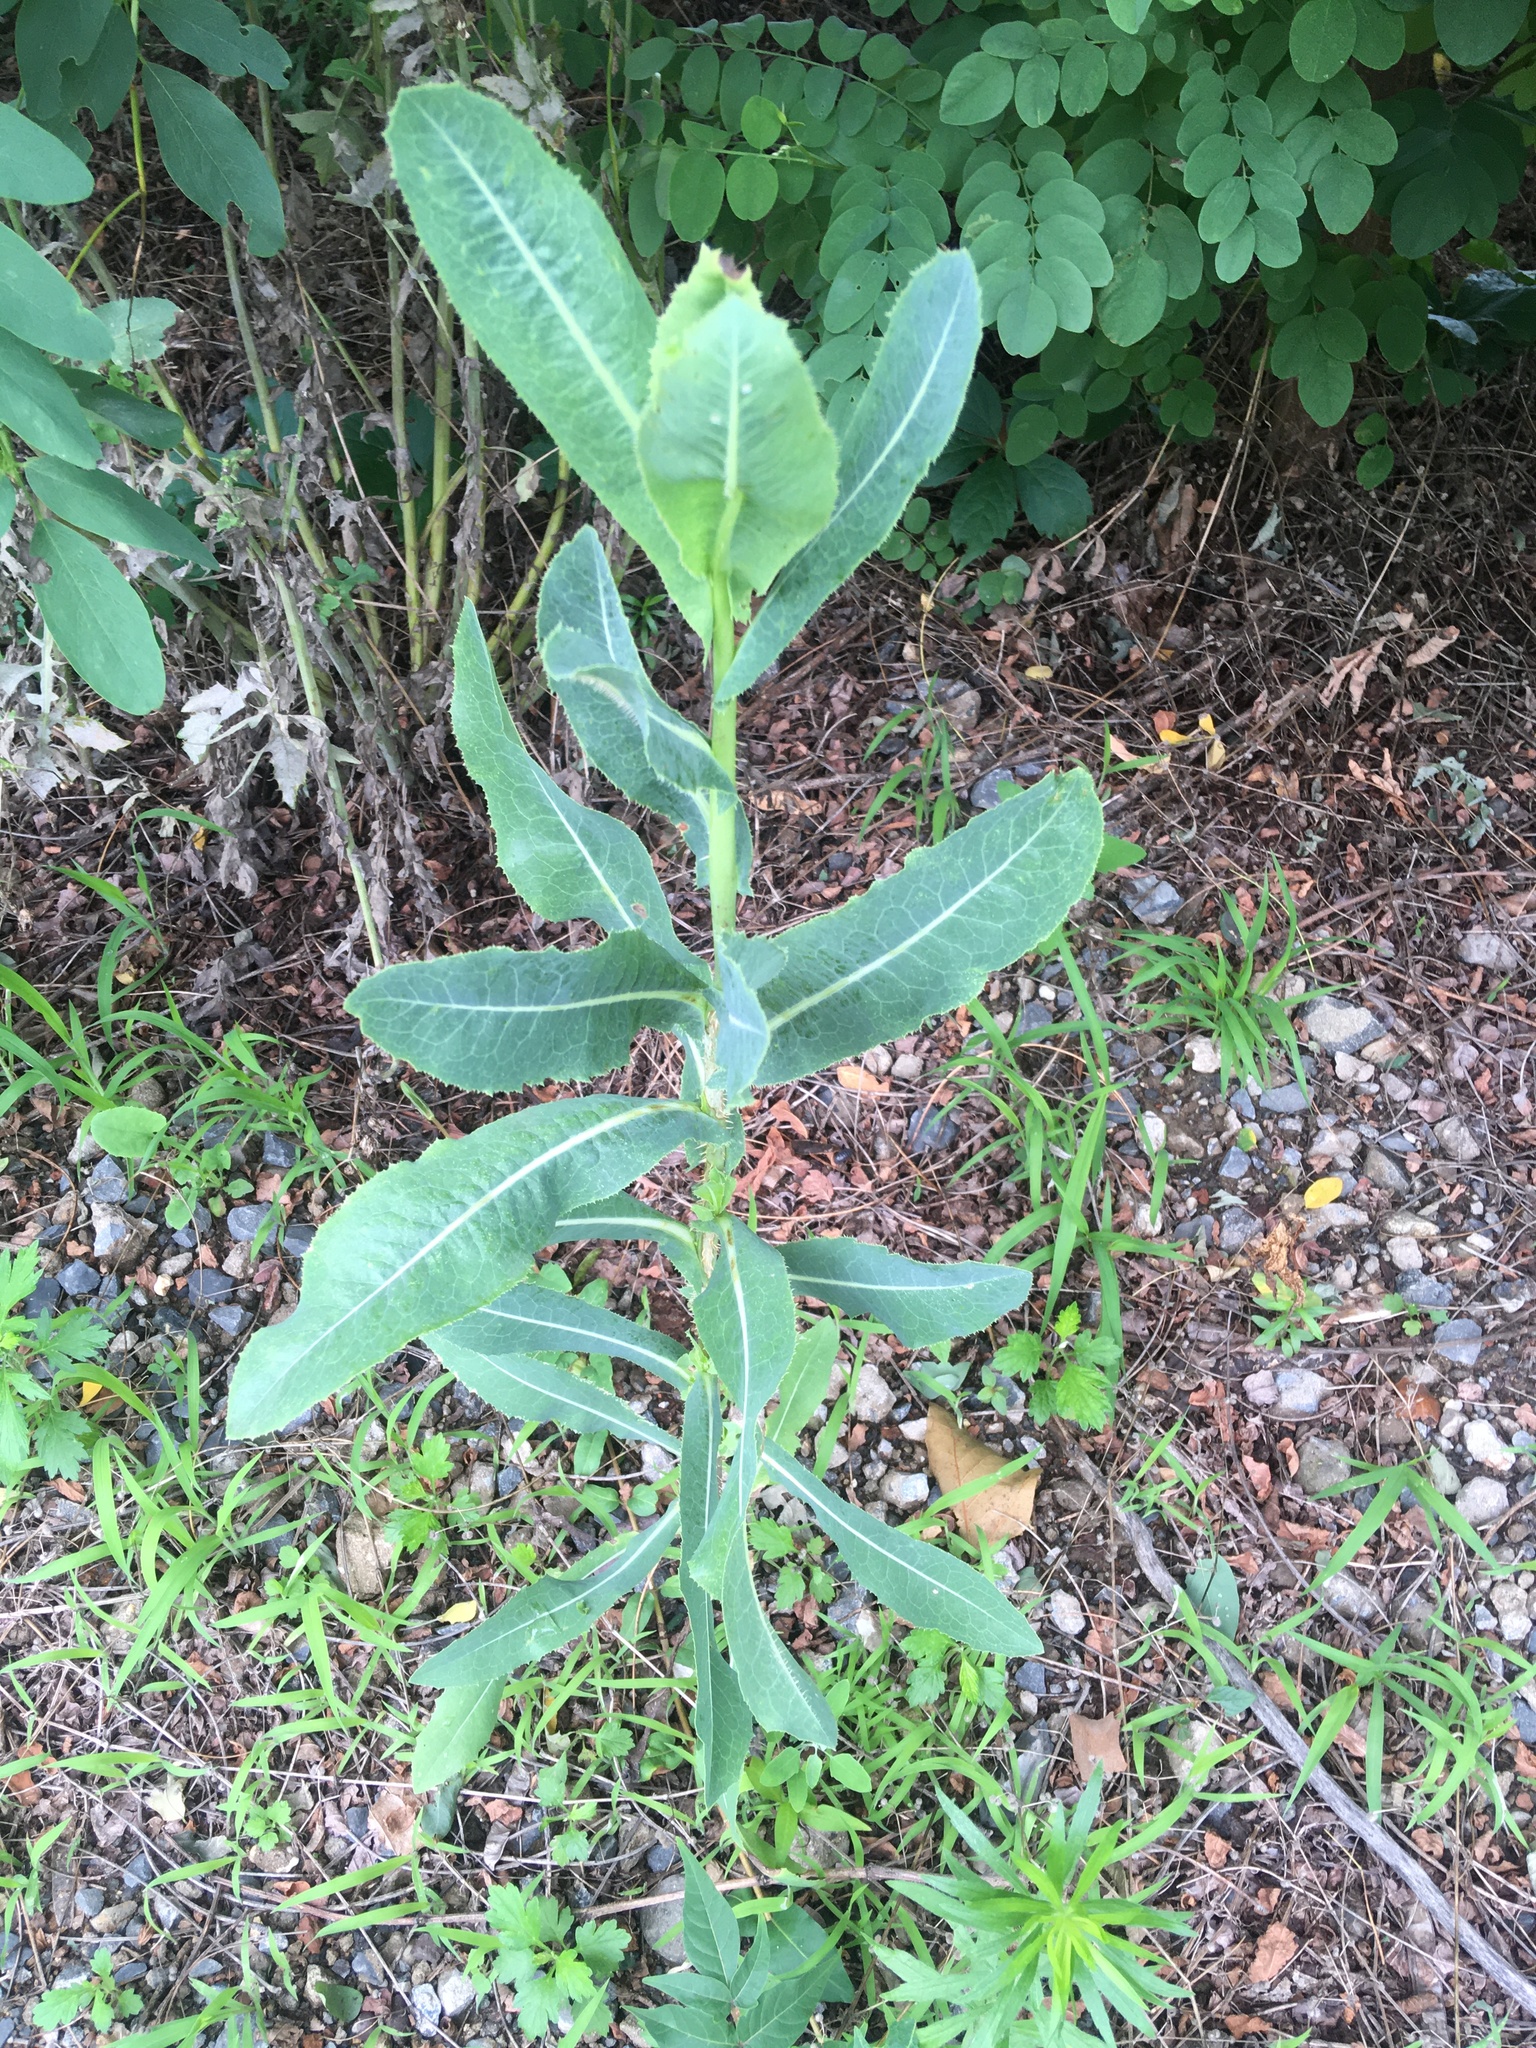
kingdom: Plantae
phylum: Tracheophyta
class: Magnoliopsida
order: Asterales
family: Asteraceae
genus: Lactuca
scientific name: Lactuca serriola
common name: Prickly lettuce
